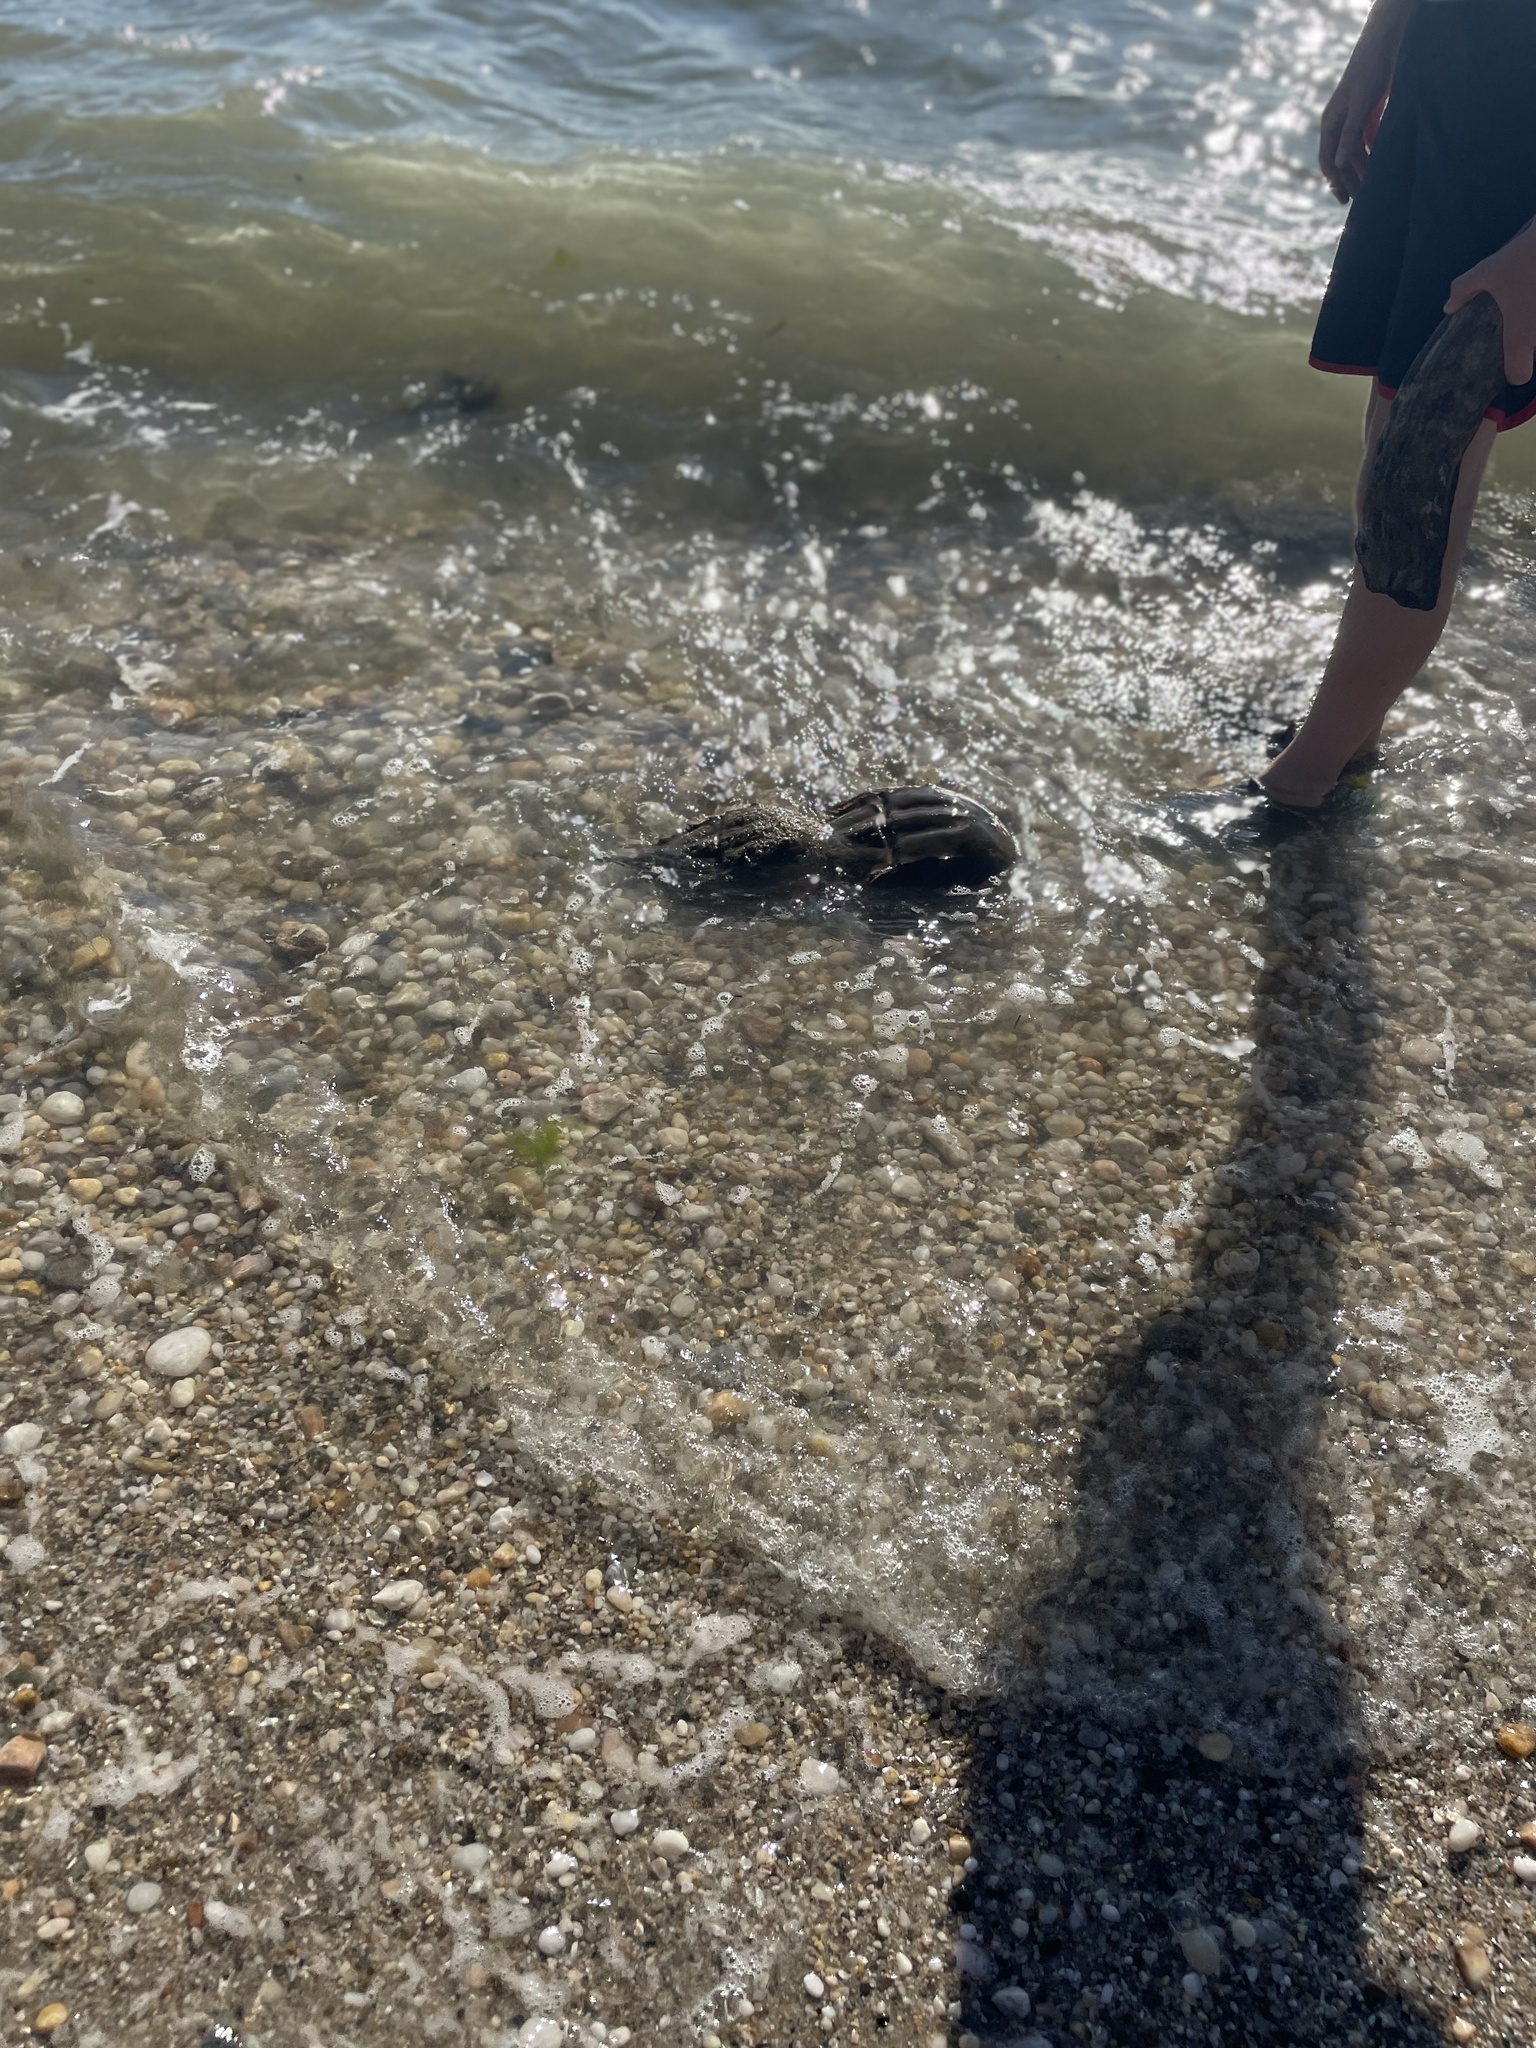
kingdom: Animalia
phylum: Arthropoda
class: Merostomata
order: Xiphosurida
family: Limulidae
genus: Limulus
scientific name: Limulus polyphemus
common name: Horseshoe crab
